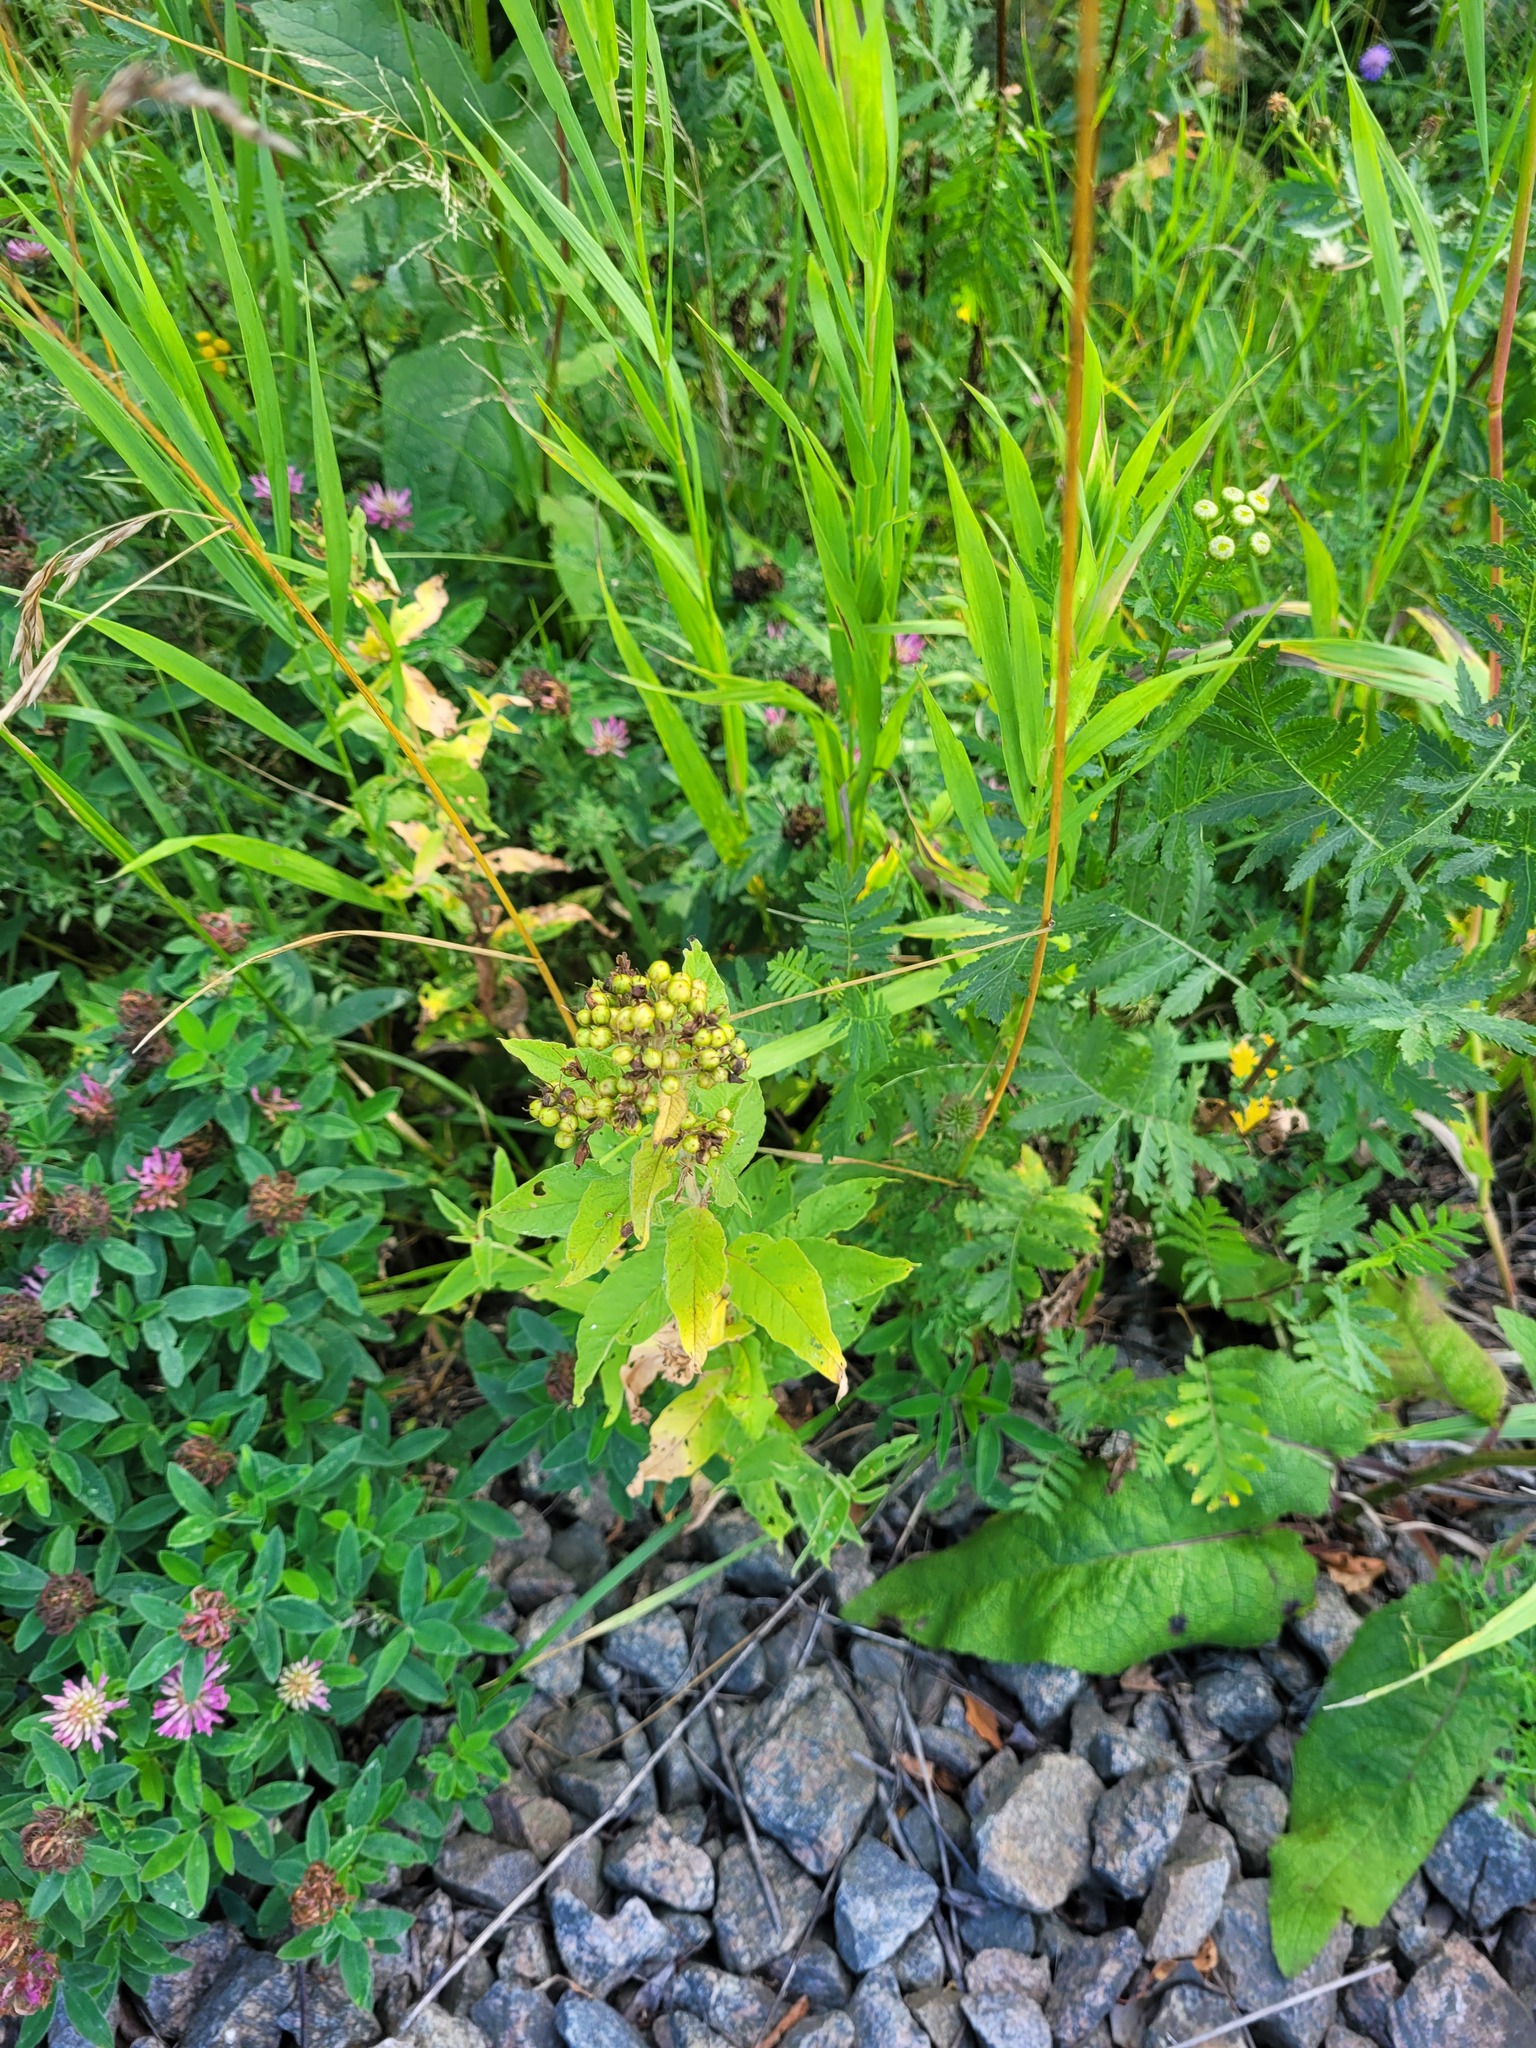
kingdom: Plantae
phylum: Tracheophyta
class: Magnoliopsida
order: Ericales
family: Primulaceae
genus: Lysimachia
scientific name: Lysimachia vulgaris
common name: Yellow loosestrife
